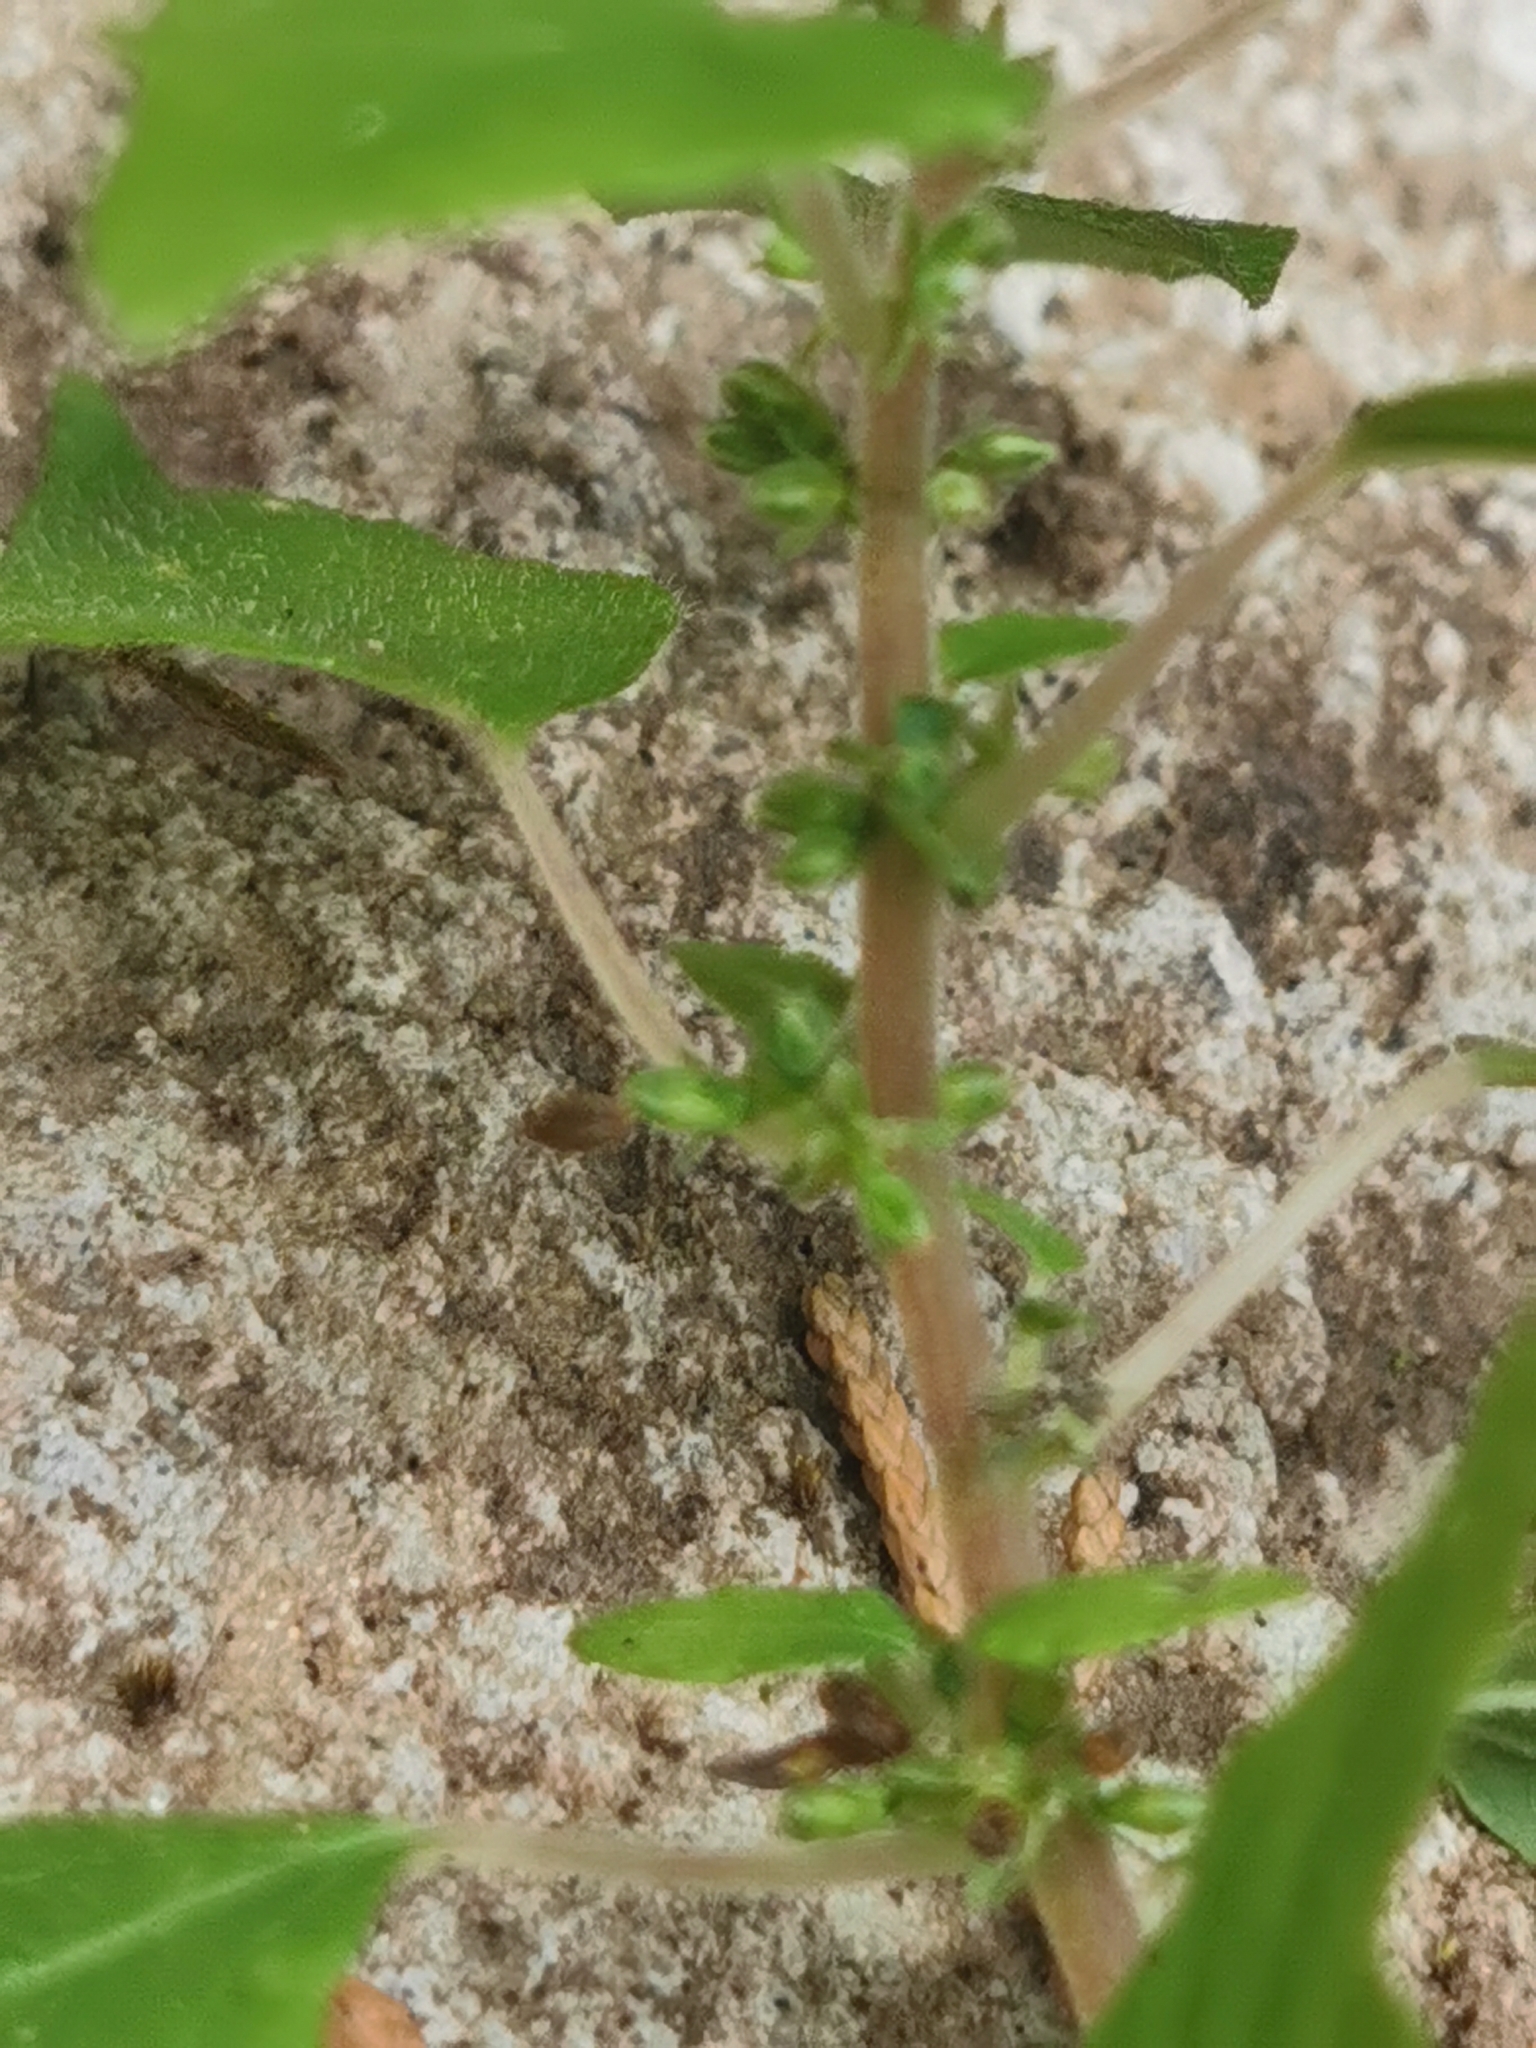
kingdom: Plantae
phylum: Tracheophyta
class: Magnoliopsida
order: Rosales
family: Urticaceae
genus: Parietaria
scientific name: Parietaria hespera
